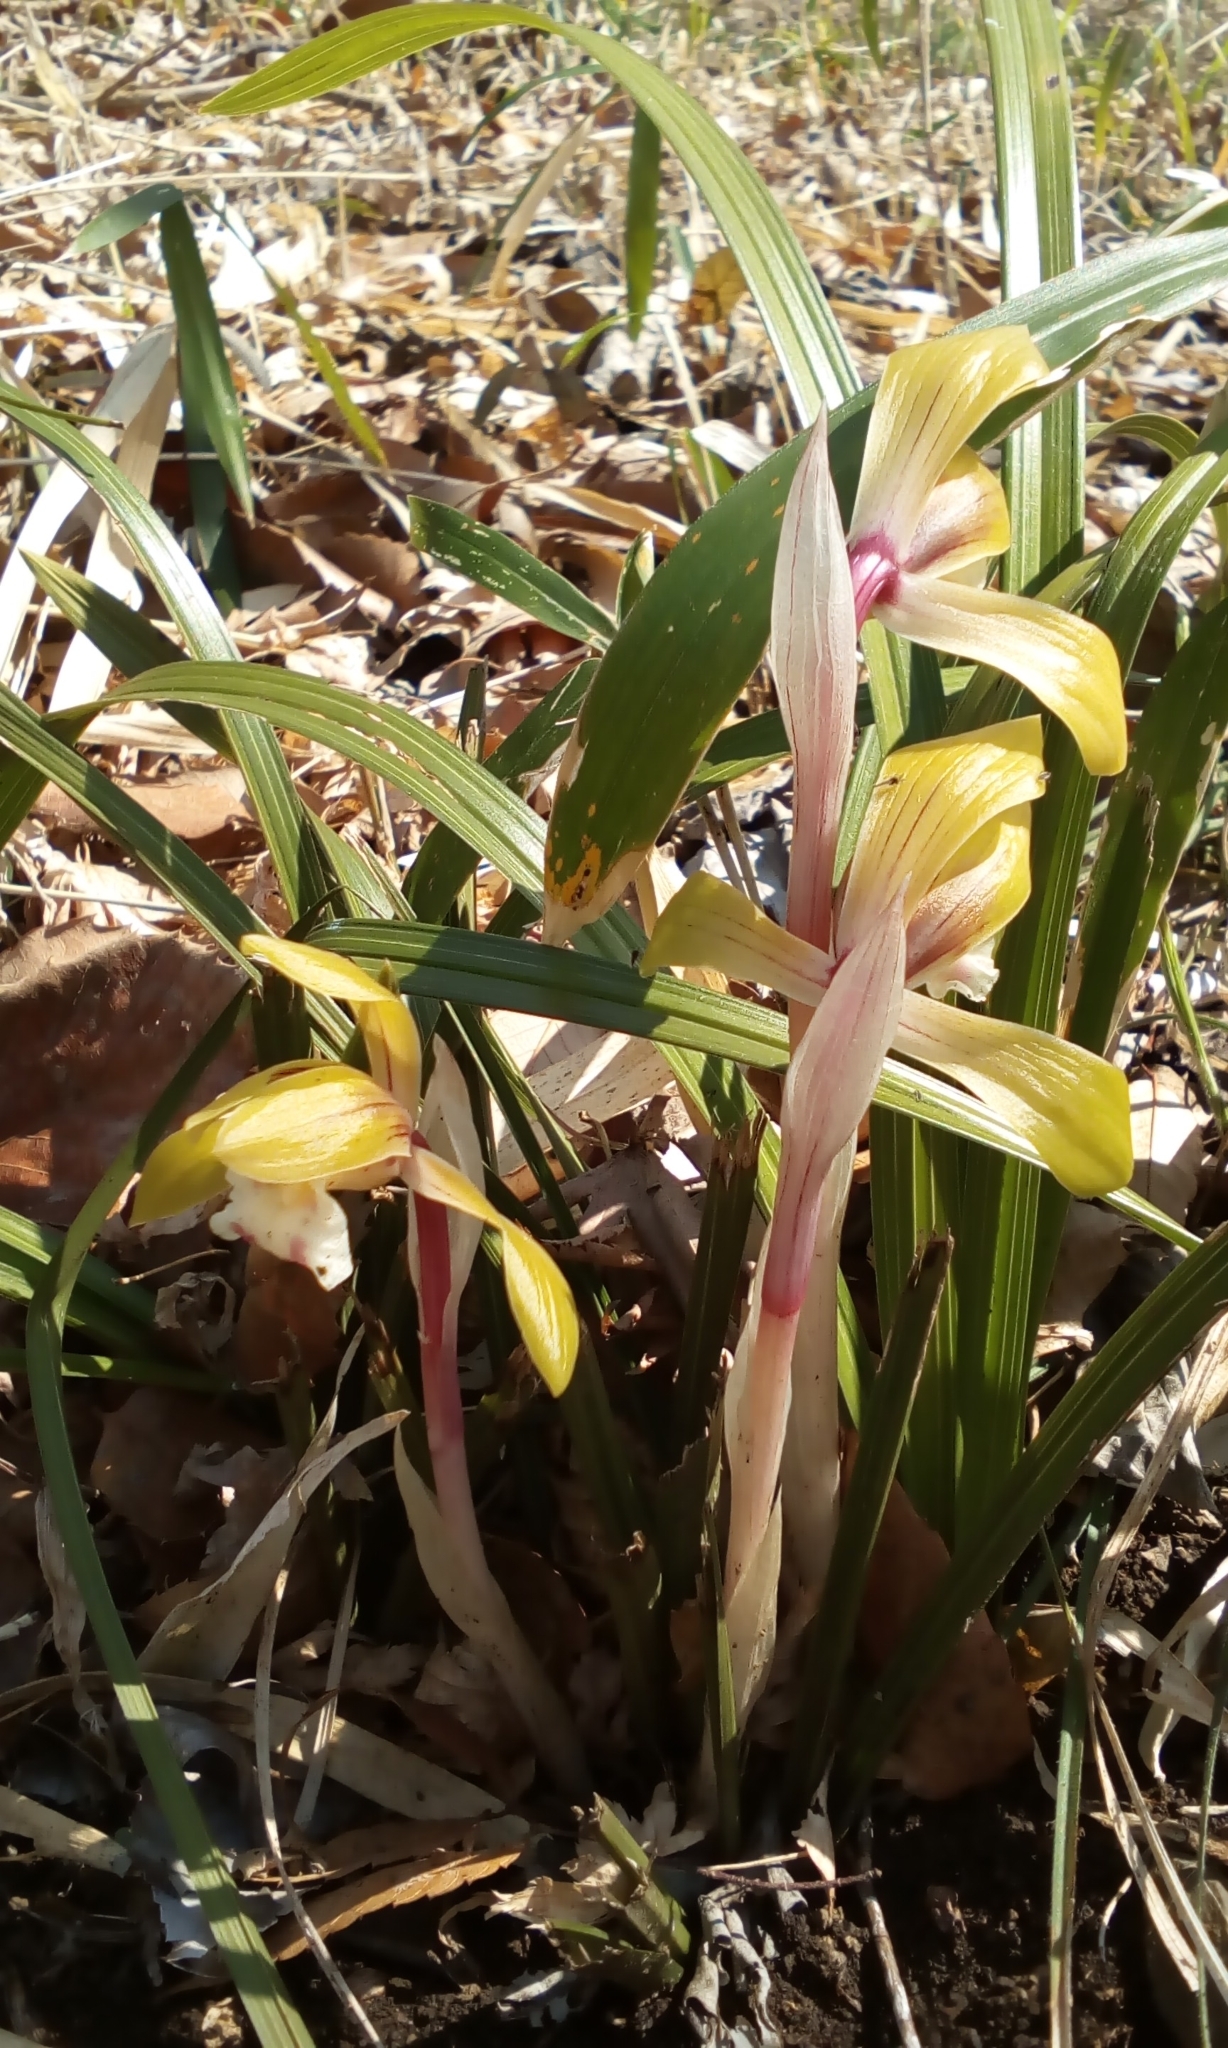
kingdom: Plantae
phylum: Tracheophyta
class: Liliopsida
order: Asparagales
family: Orchidaceae
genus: Cymbidium
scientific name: Cymbidium goeringii
